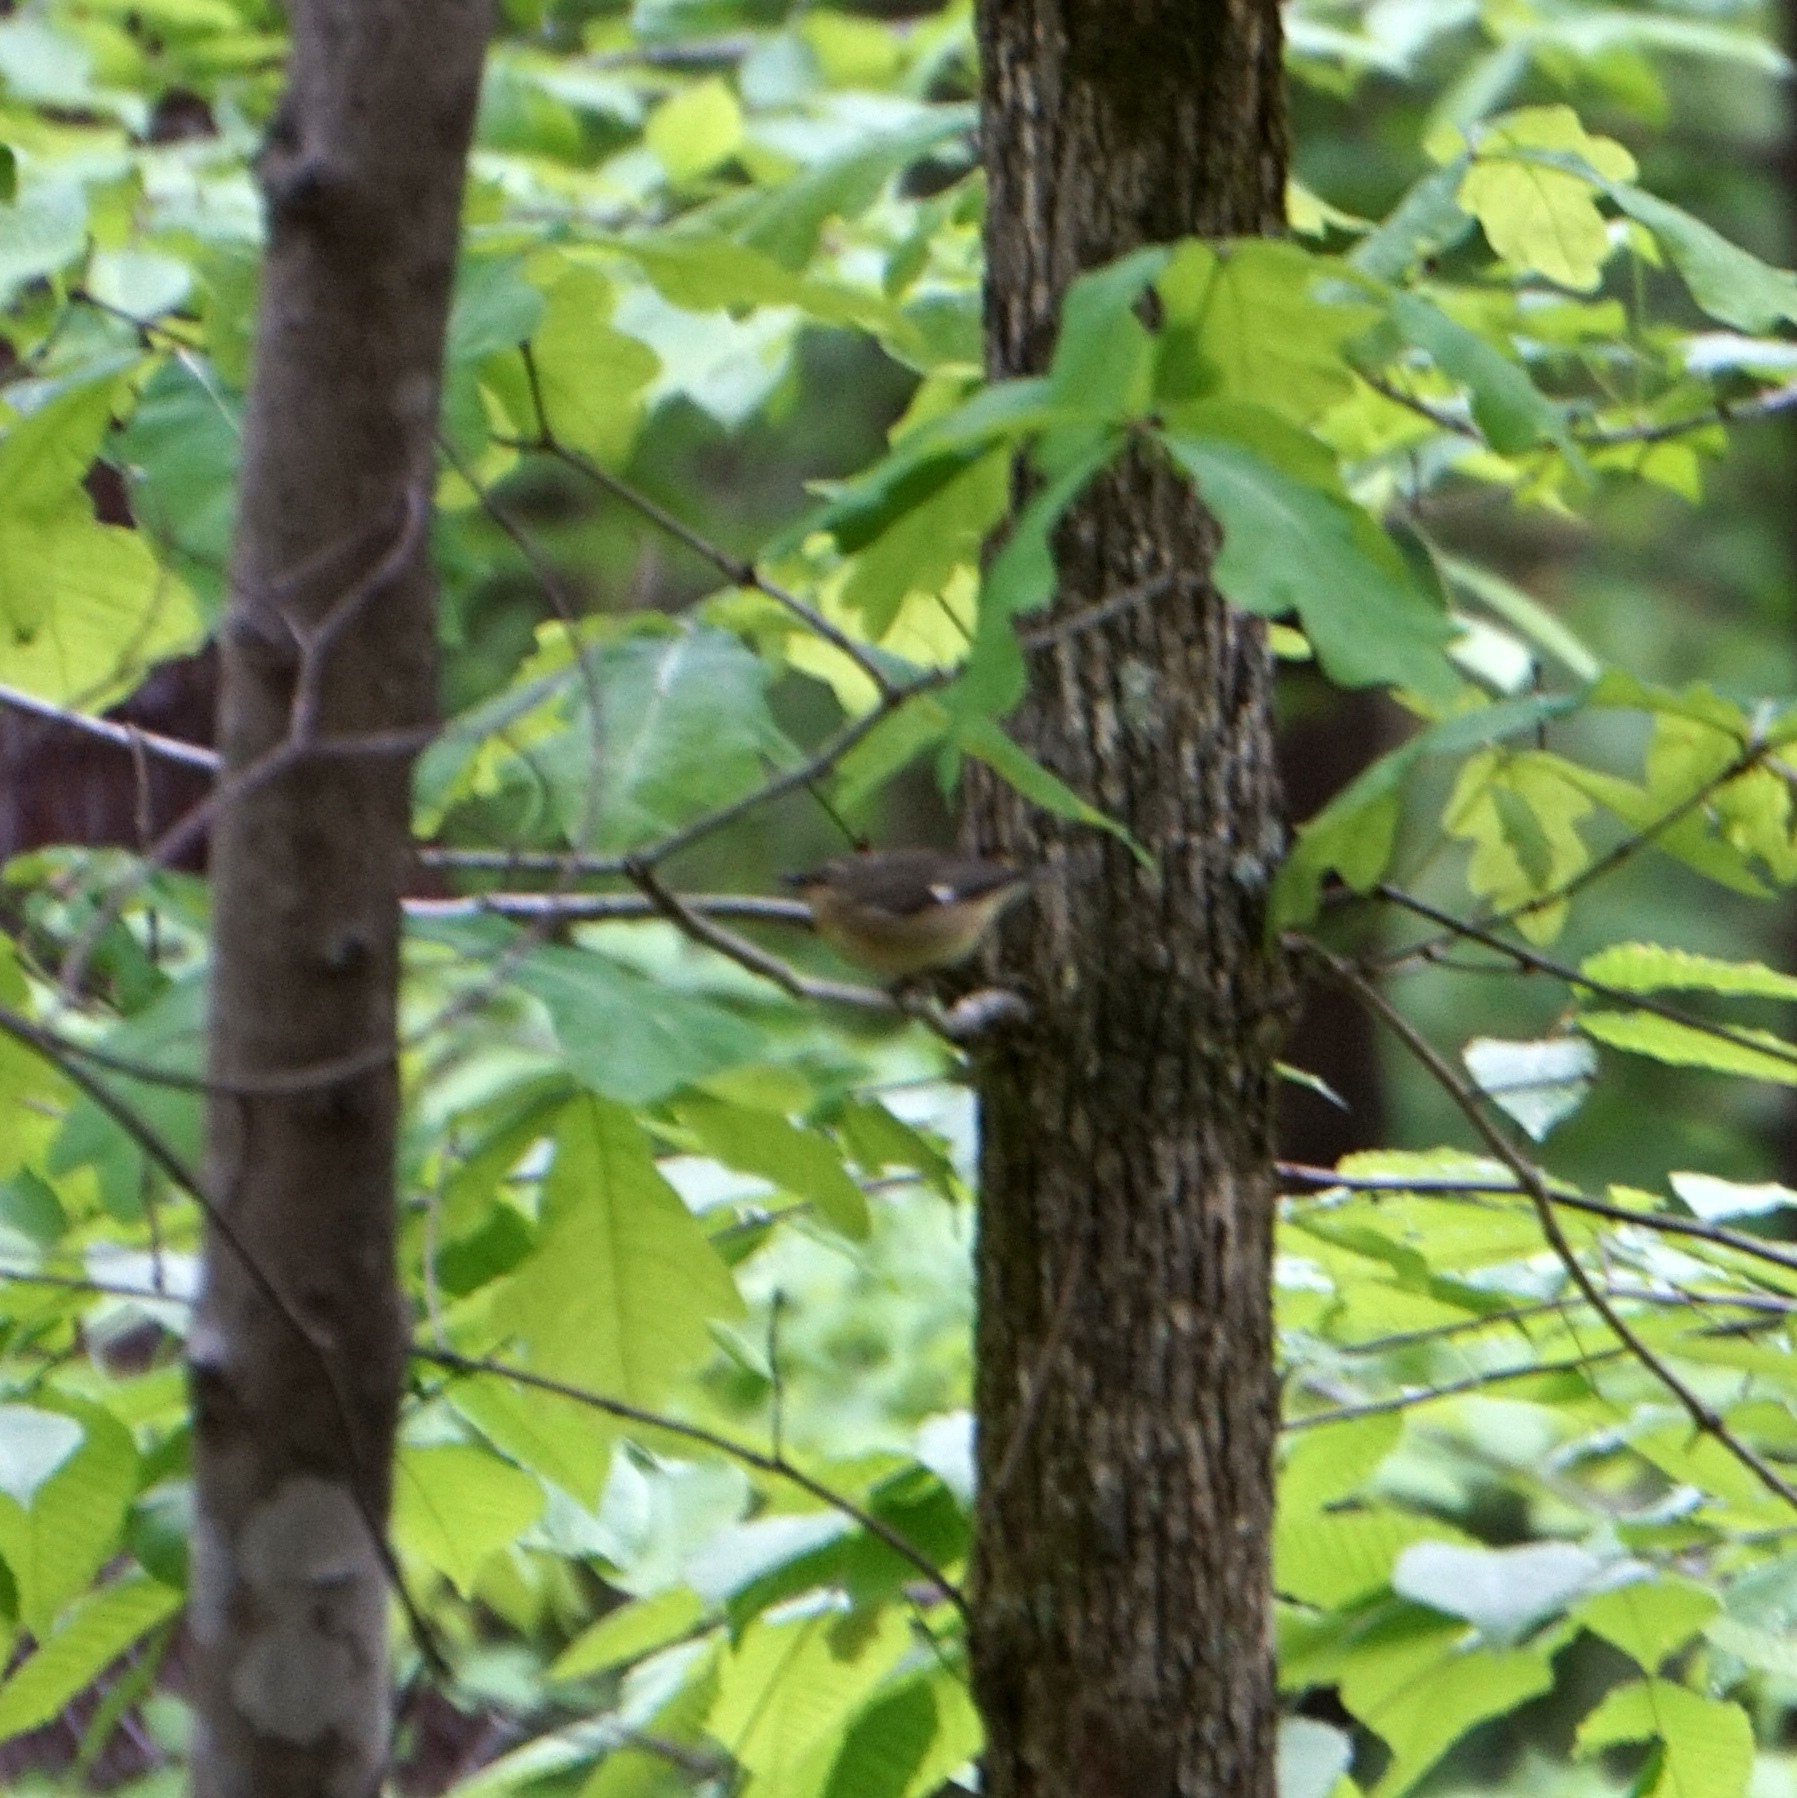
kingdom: Animalia
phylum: Chordata
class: Aves
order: Passeriformes
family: Parulidae
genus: Setophaga
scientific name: Setophaga caerulescens
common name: Black-throated blue warbler
